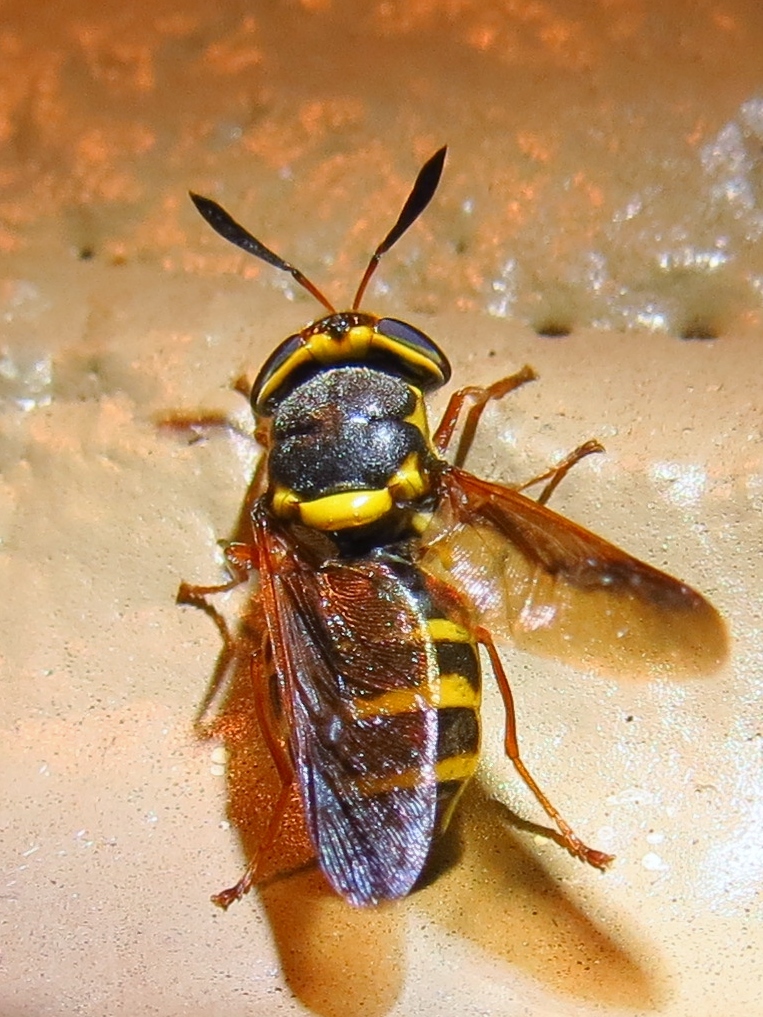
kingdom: Animalia
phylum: Arthropoda
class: Insecta
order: Diptera
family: Stratiomyidae
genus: Hoplitimyia
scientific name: Hoplitimyia constans
